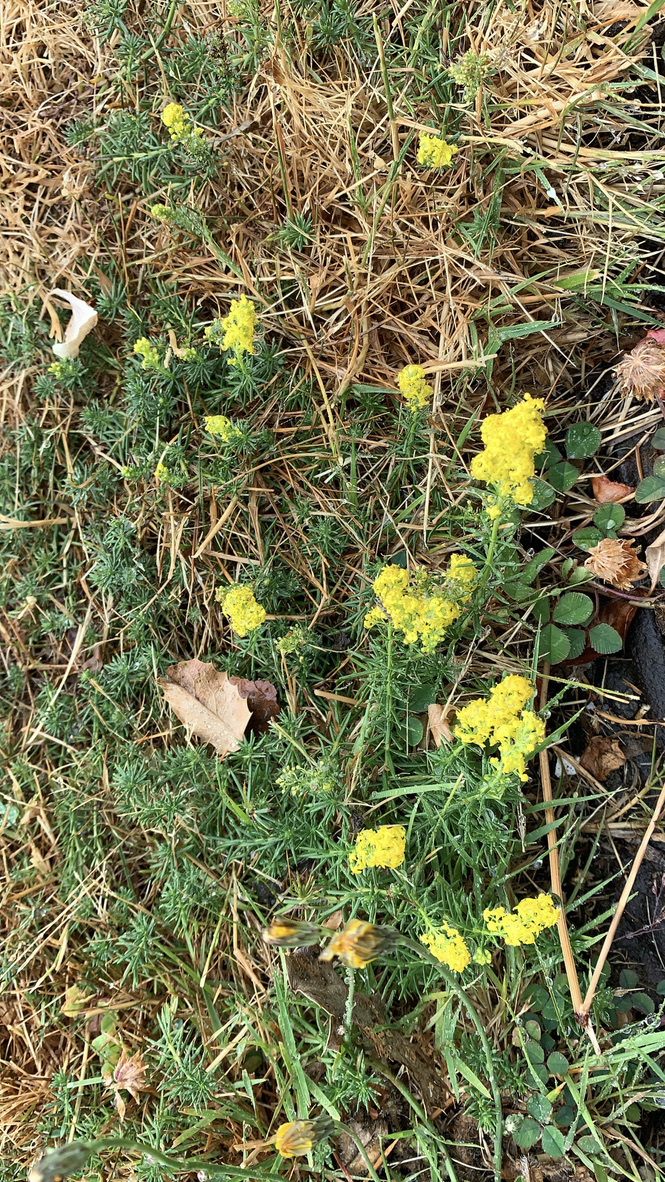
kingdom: Plantae
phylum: Tracheophyta
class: Magnoliopsida
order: Gentianales
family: Rubiaceae
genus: Galium
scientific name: Galium verum
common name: Lady's bedstraw
